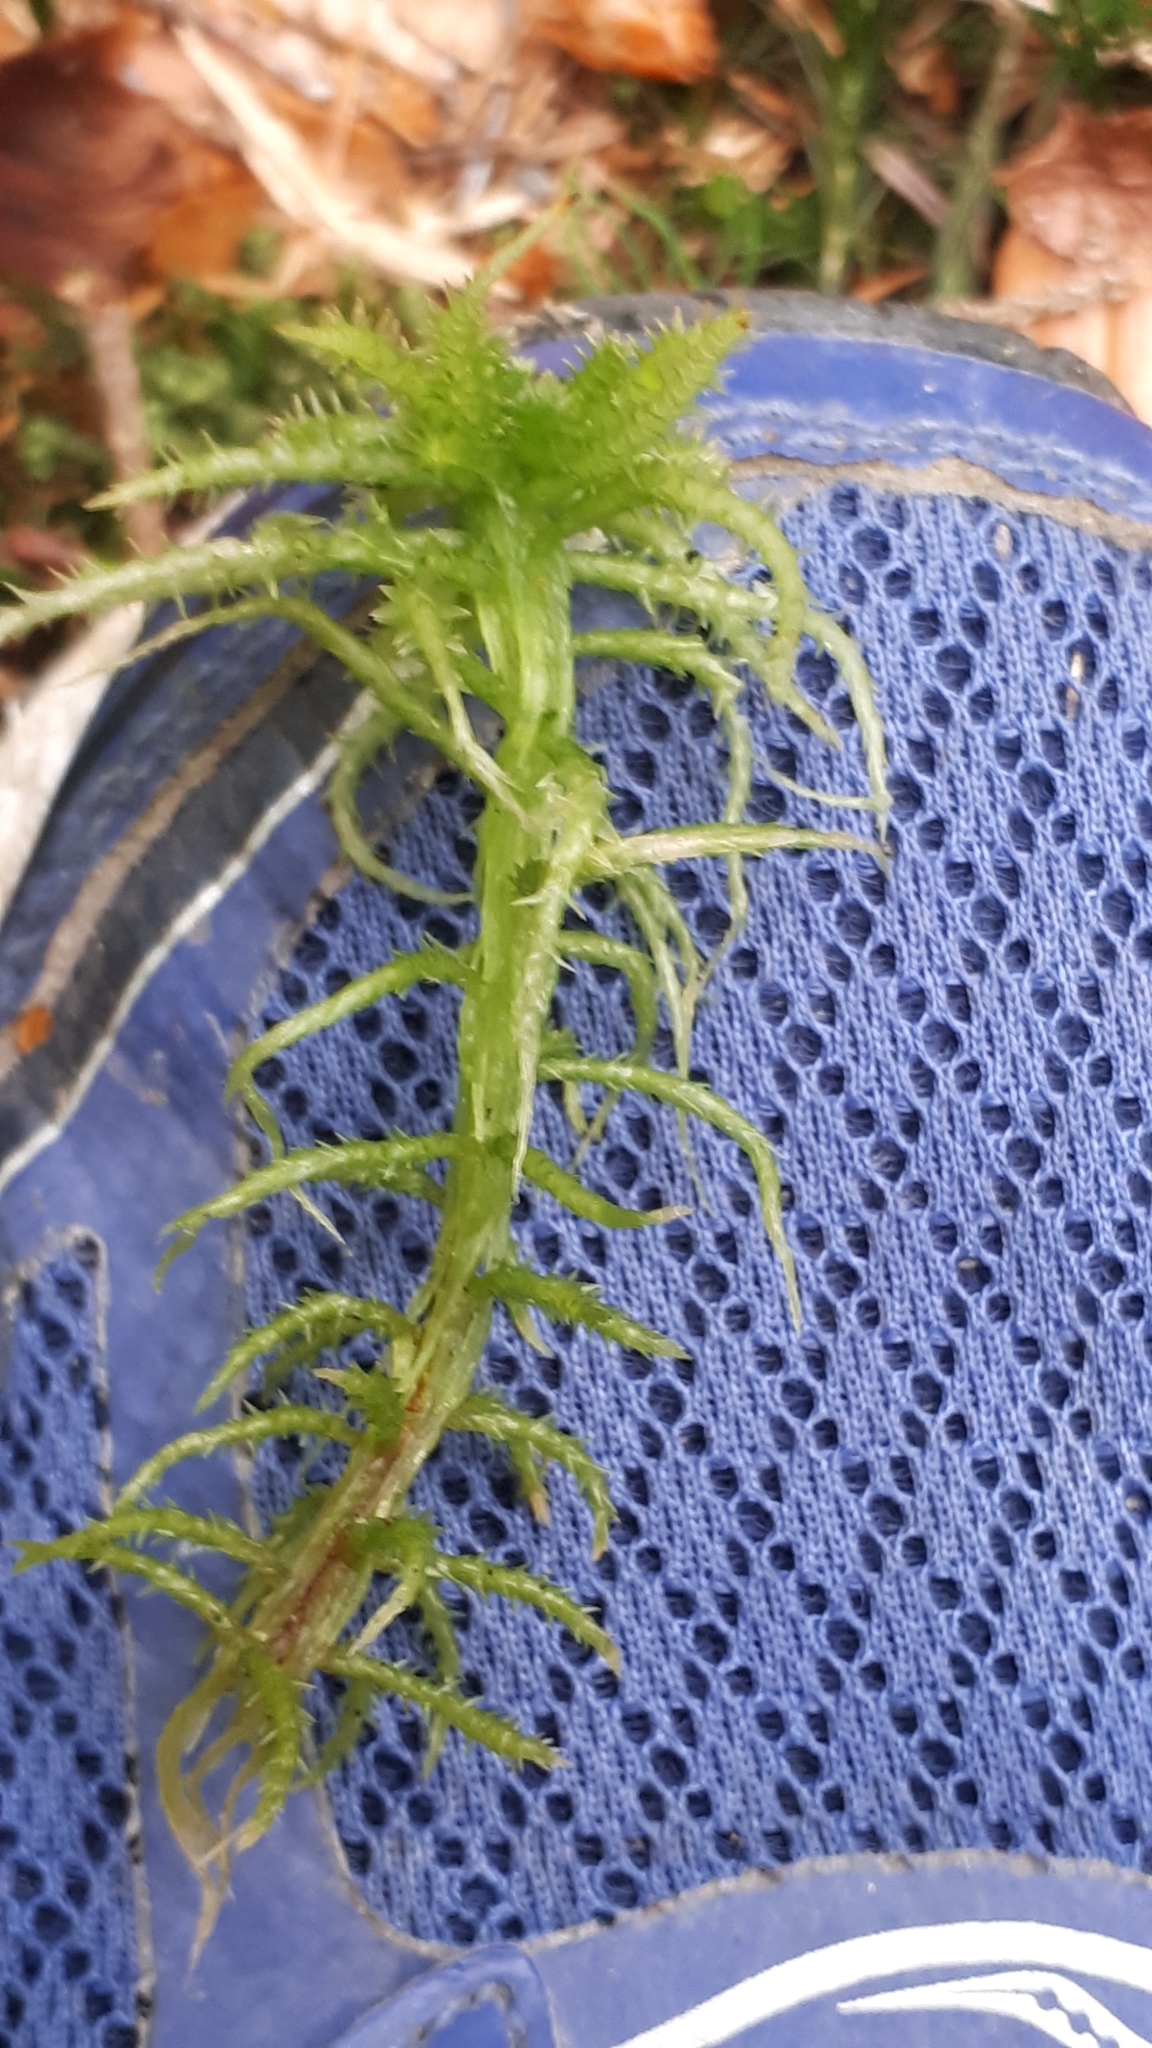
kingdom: Plantae
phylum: Bryophyta
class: Sphagnopsida
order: Sphagnales
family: Sphagnaceae
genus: Sphagnum
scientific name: Sphagnum squarrosum
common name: Shaggy peat moss
